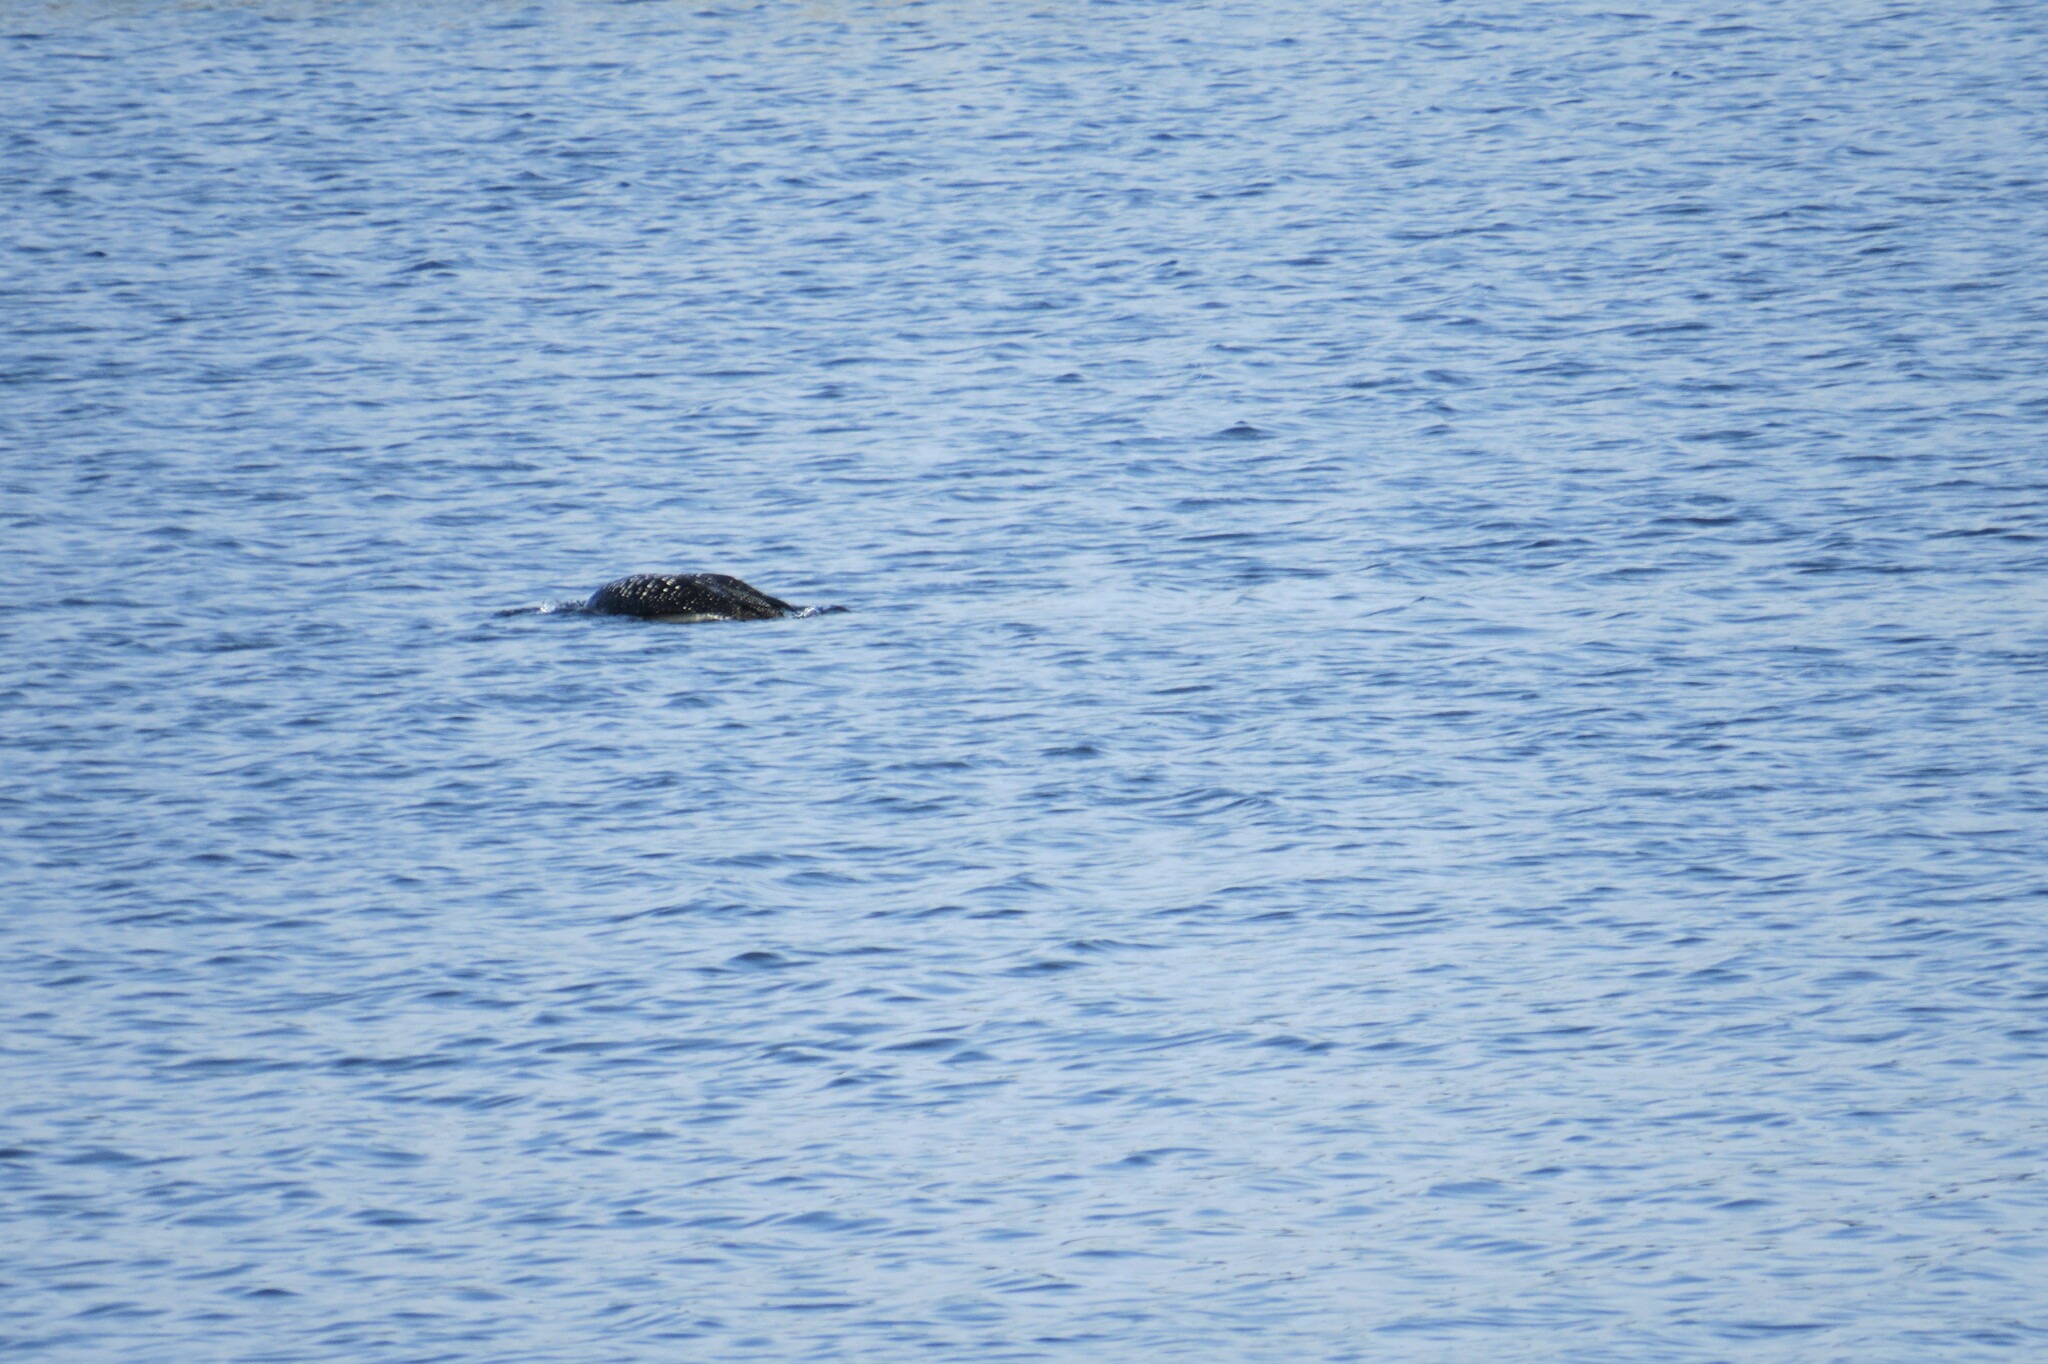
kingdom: Animalia
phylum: Chordata
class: Aves
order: Gaviiformes
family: Gaviidae
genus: Gavia
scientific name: Gavia immer
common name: Common loon
